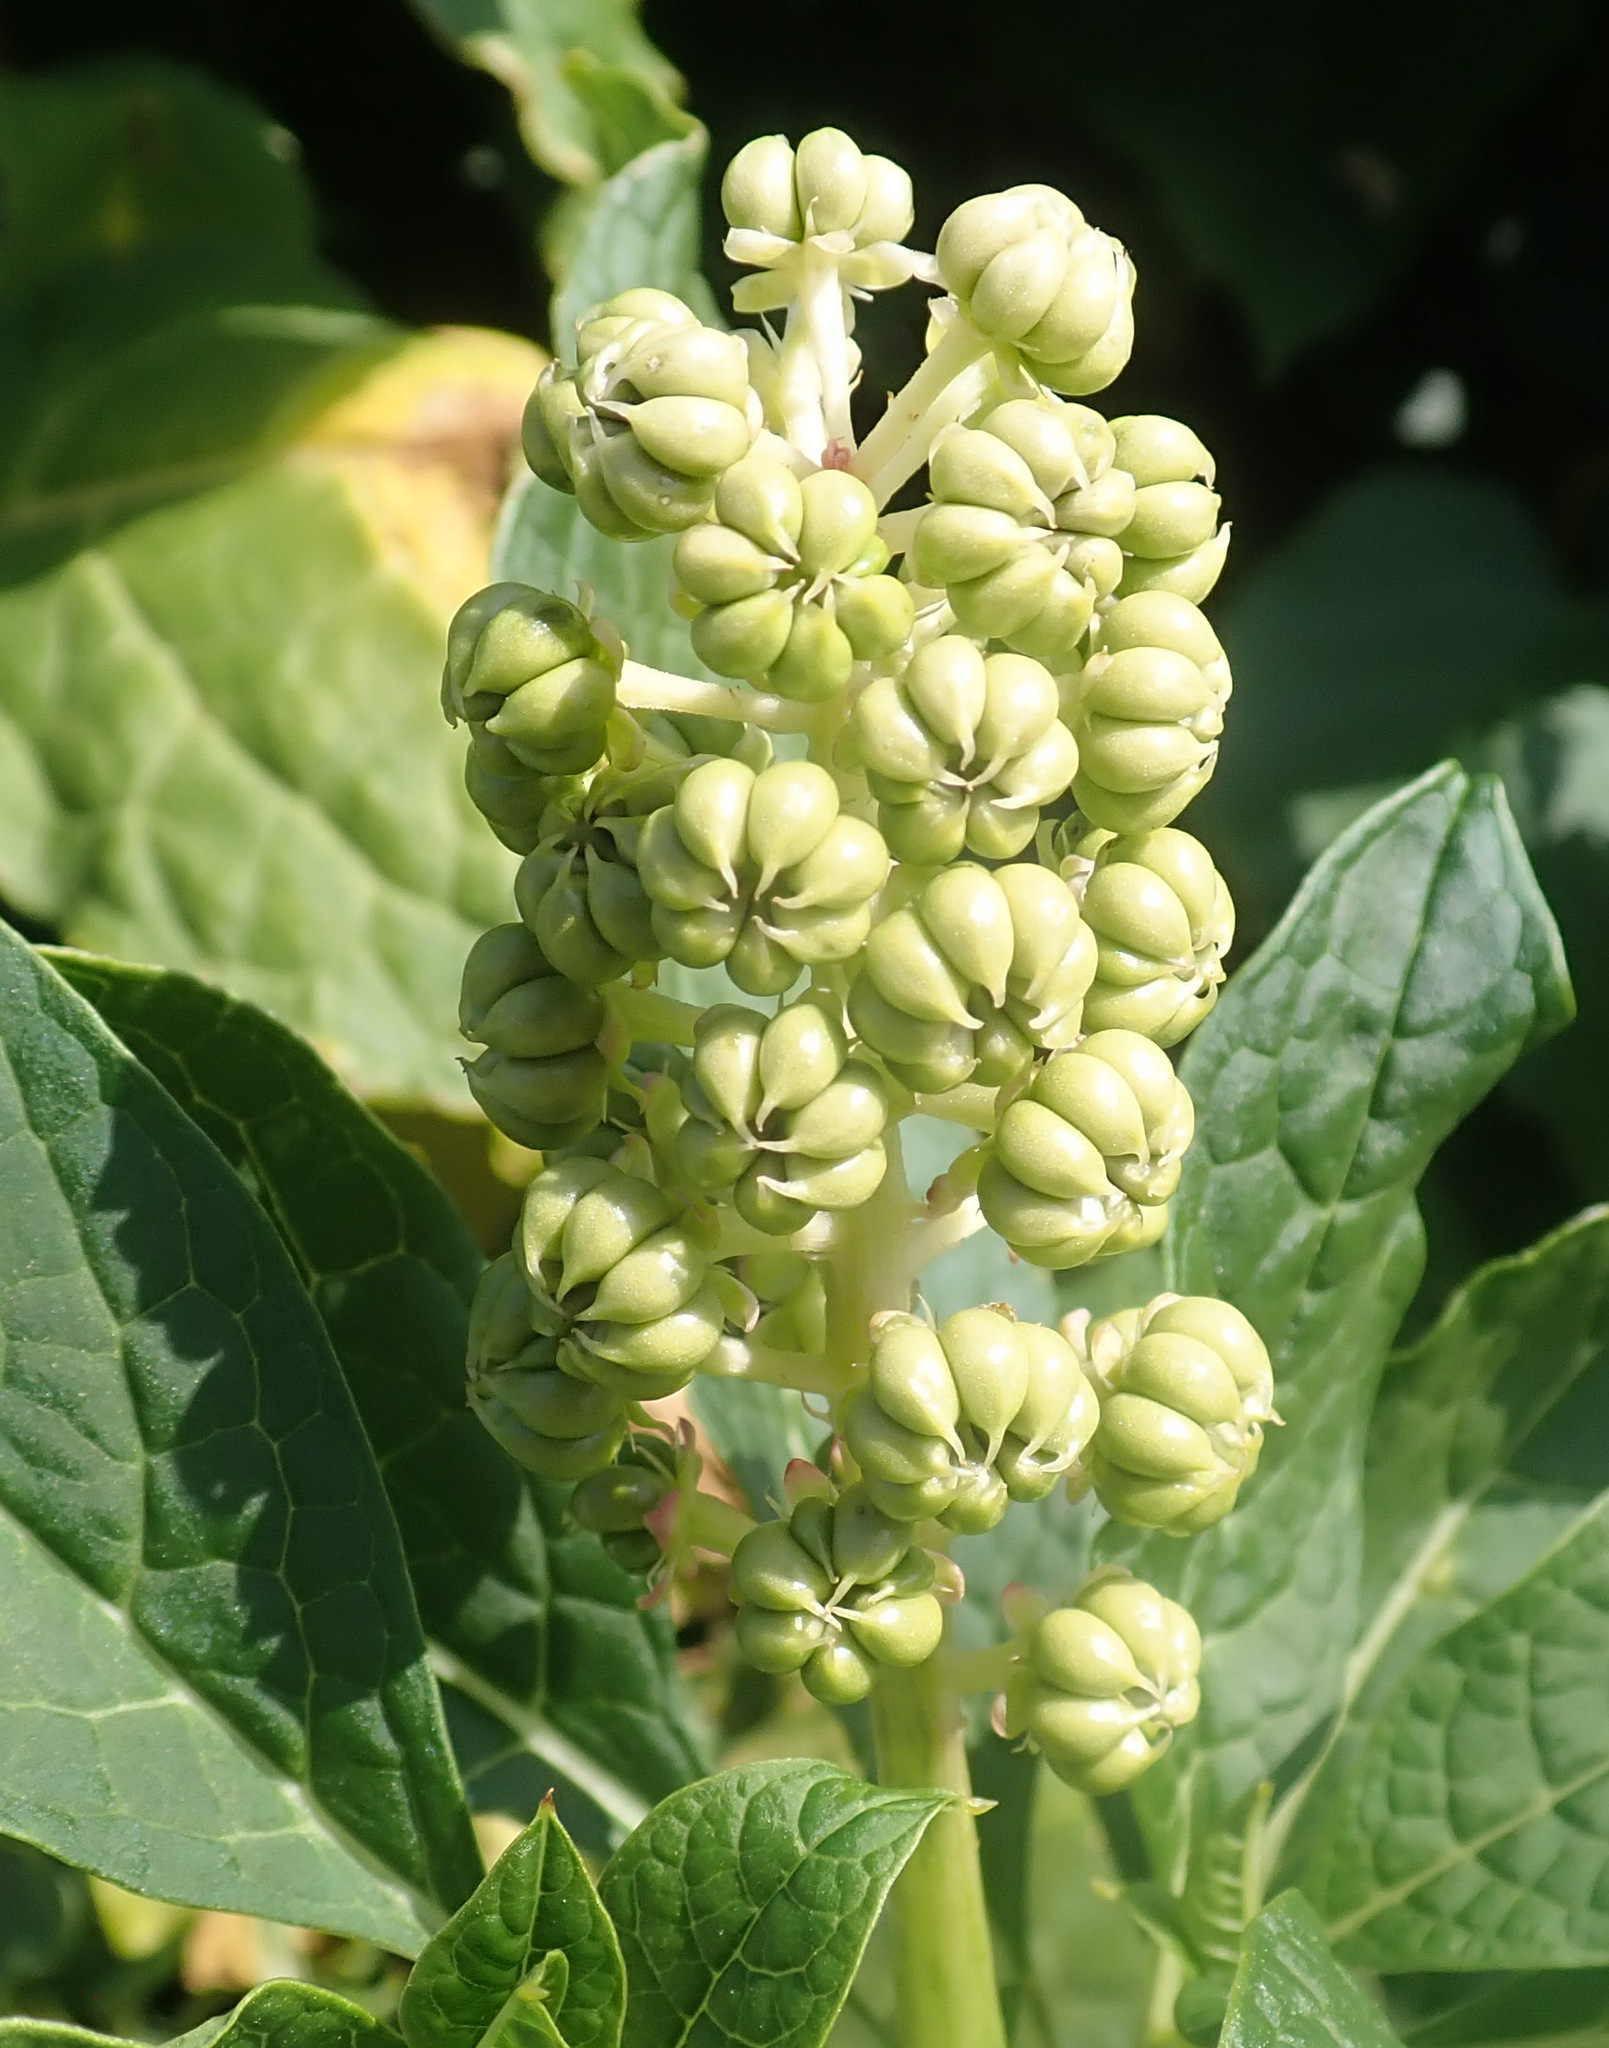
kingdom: Plantae
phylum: Tracheophyta
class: Magnoliopsida
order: Caryophyllales
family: Phytolaccaceae
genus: Phytolacca
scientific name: Phytolacca acinosa
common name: Indian pokeweed
